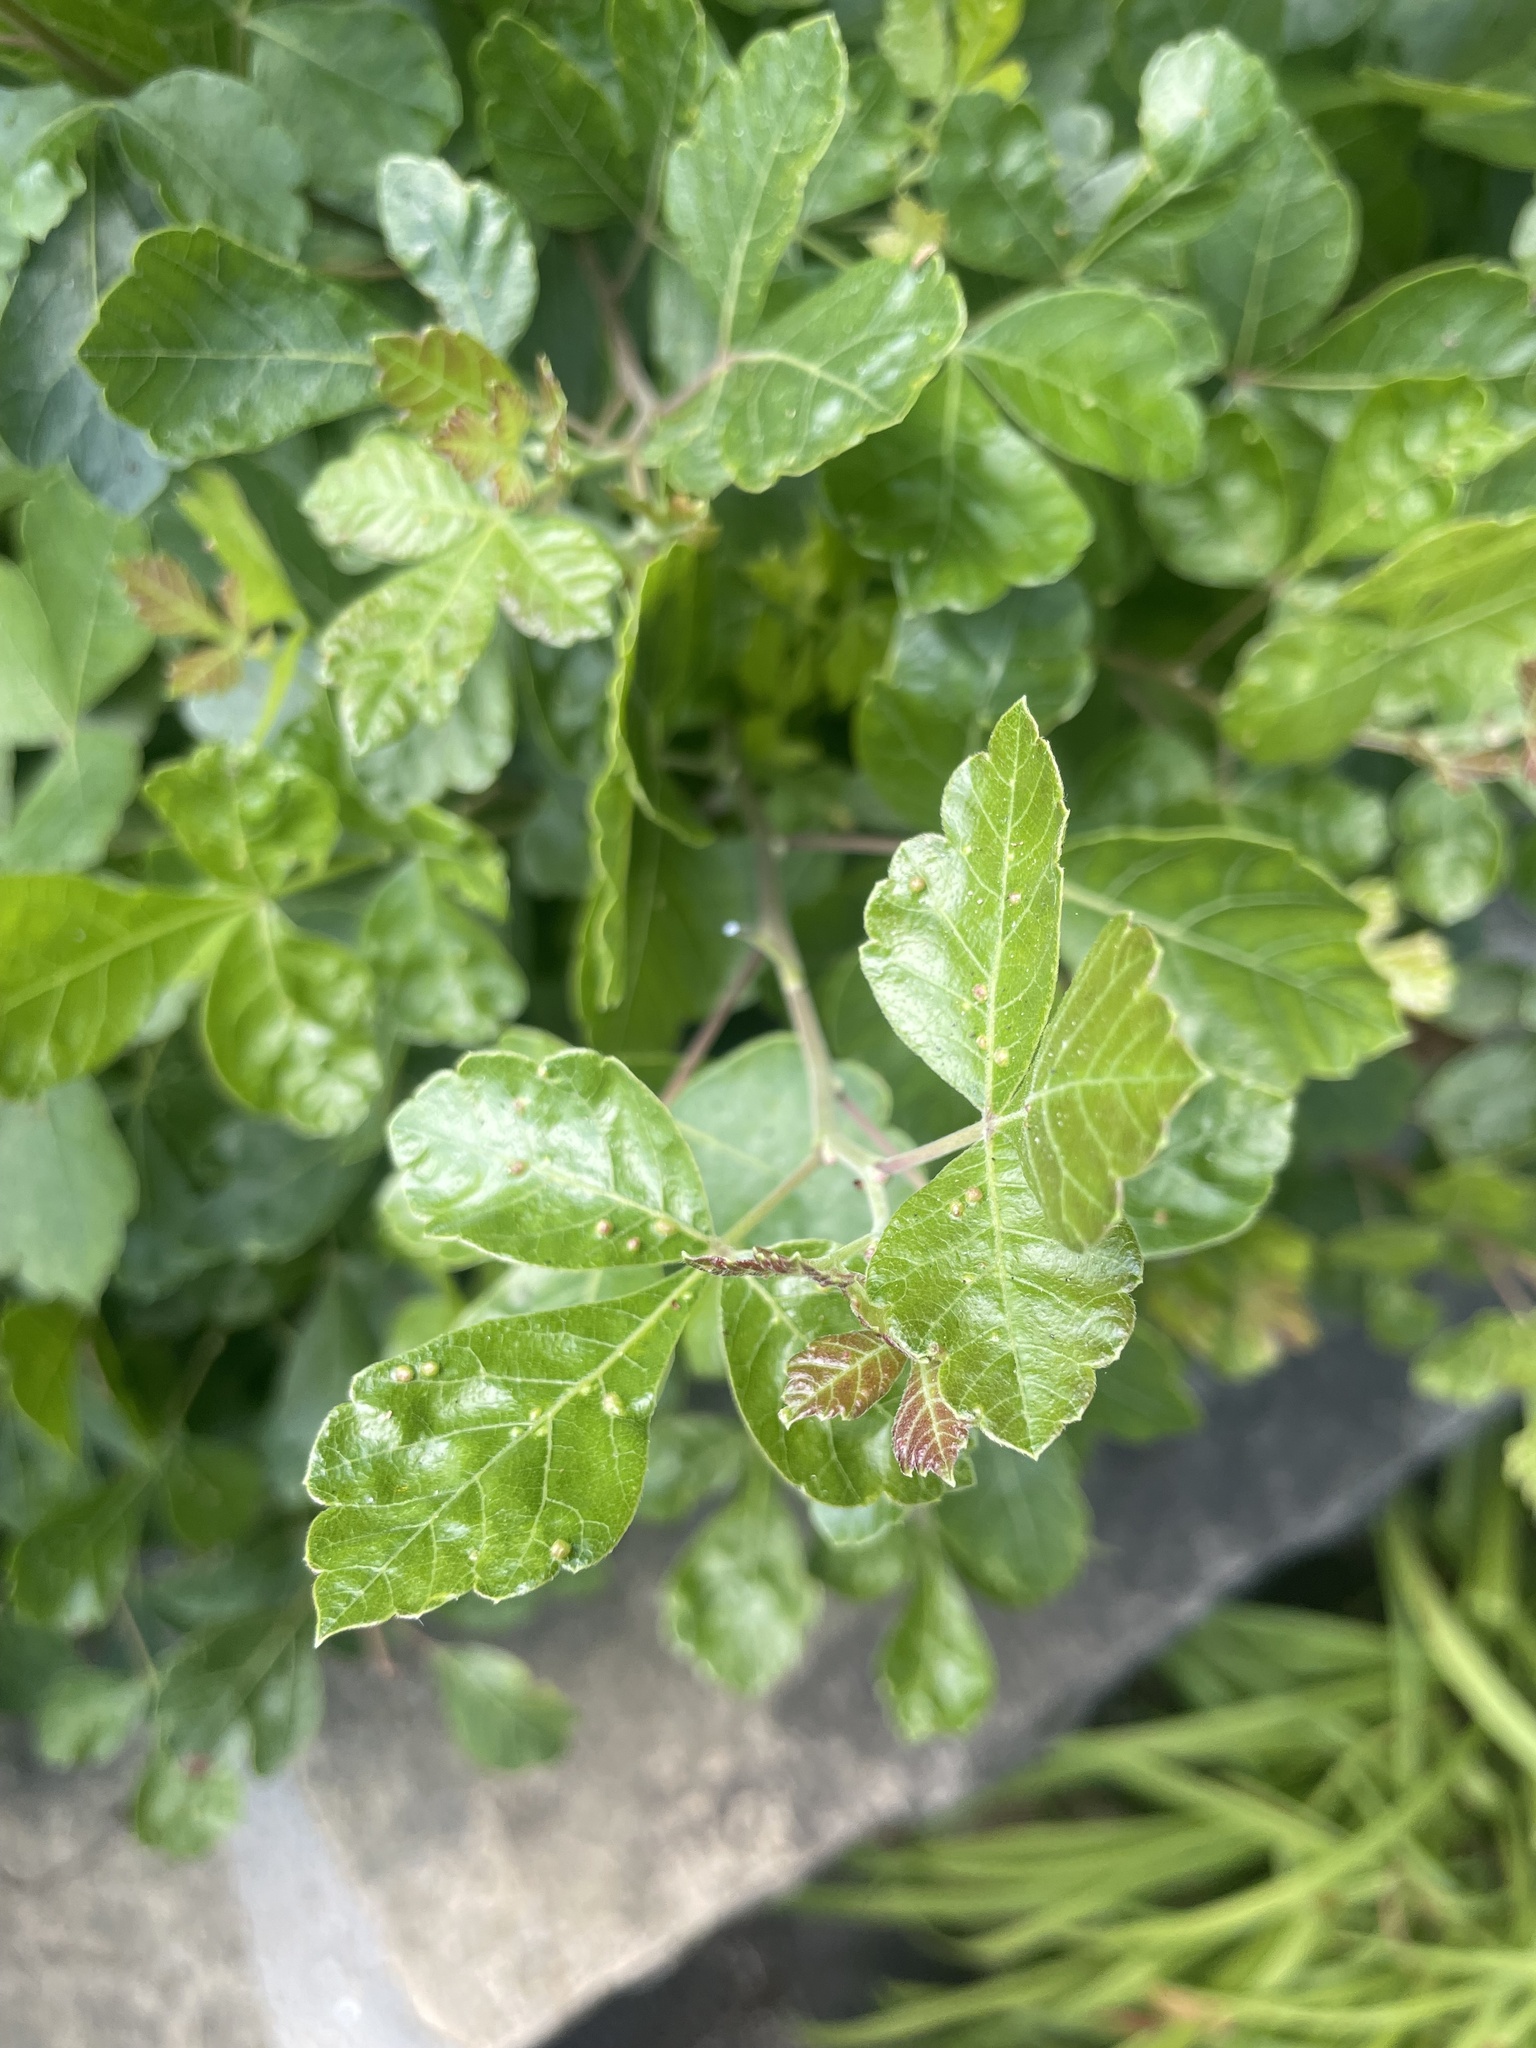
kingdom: Animalia
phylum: Arthropoda
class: Arachnida
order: Trombidiformes
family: Eriophyidae
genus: Aculops
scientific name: Aculops
